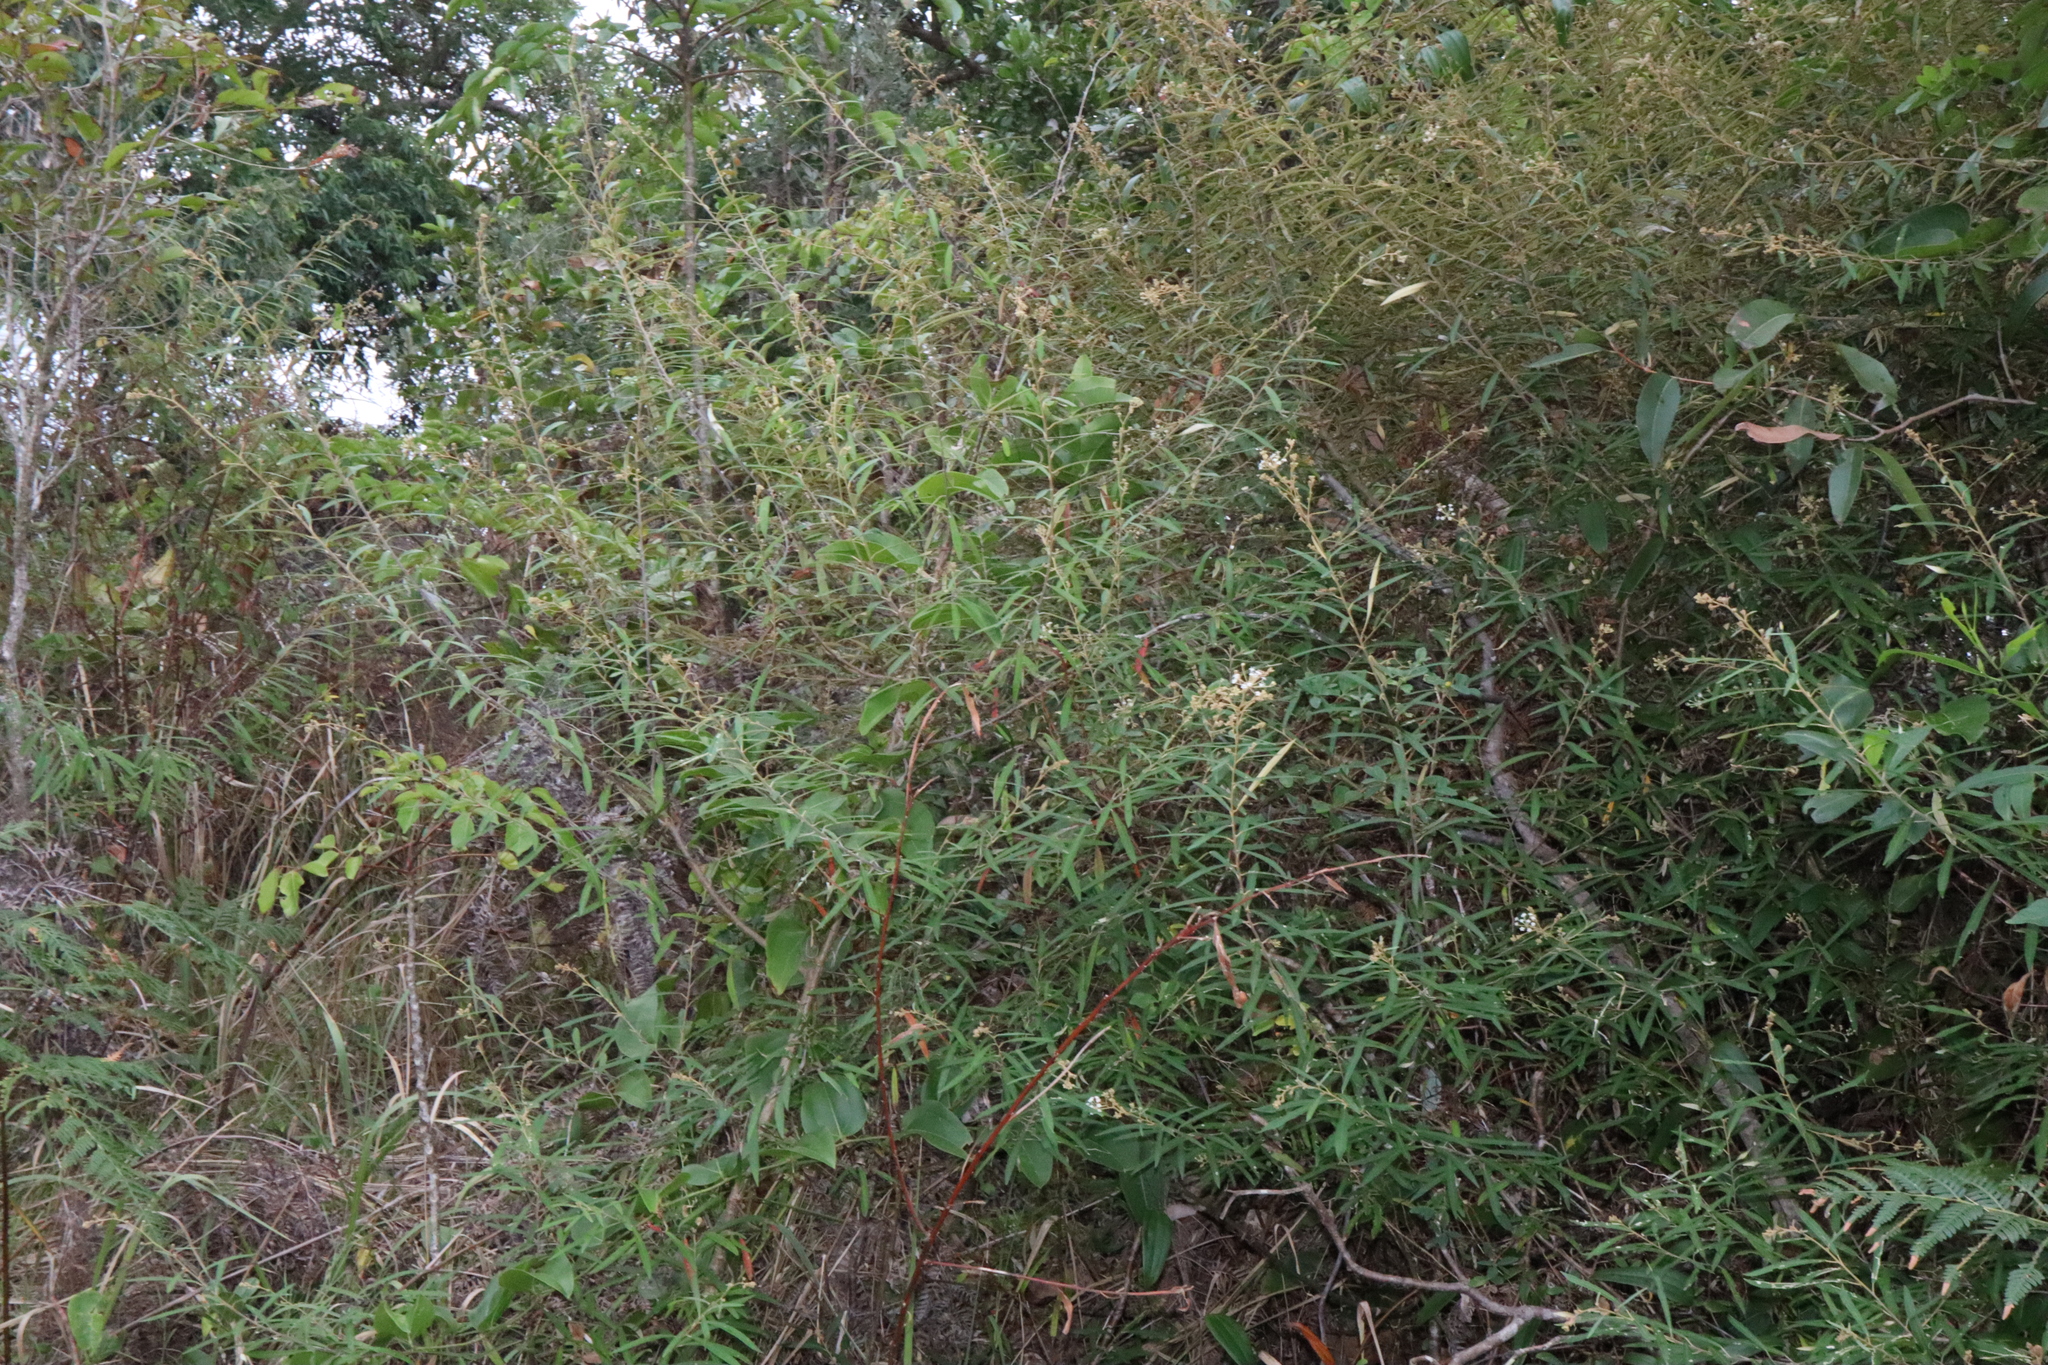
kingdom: Plantae
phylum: Tracheophyta
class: Magnoliopsida
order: Apiales
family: Araliaceae
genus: Astrotricha
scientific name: Astrotricha longifolia
